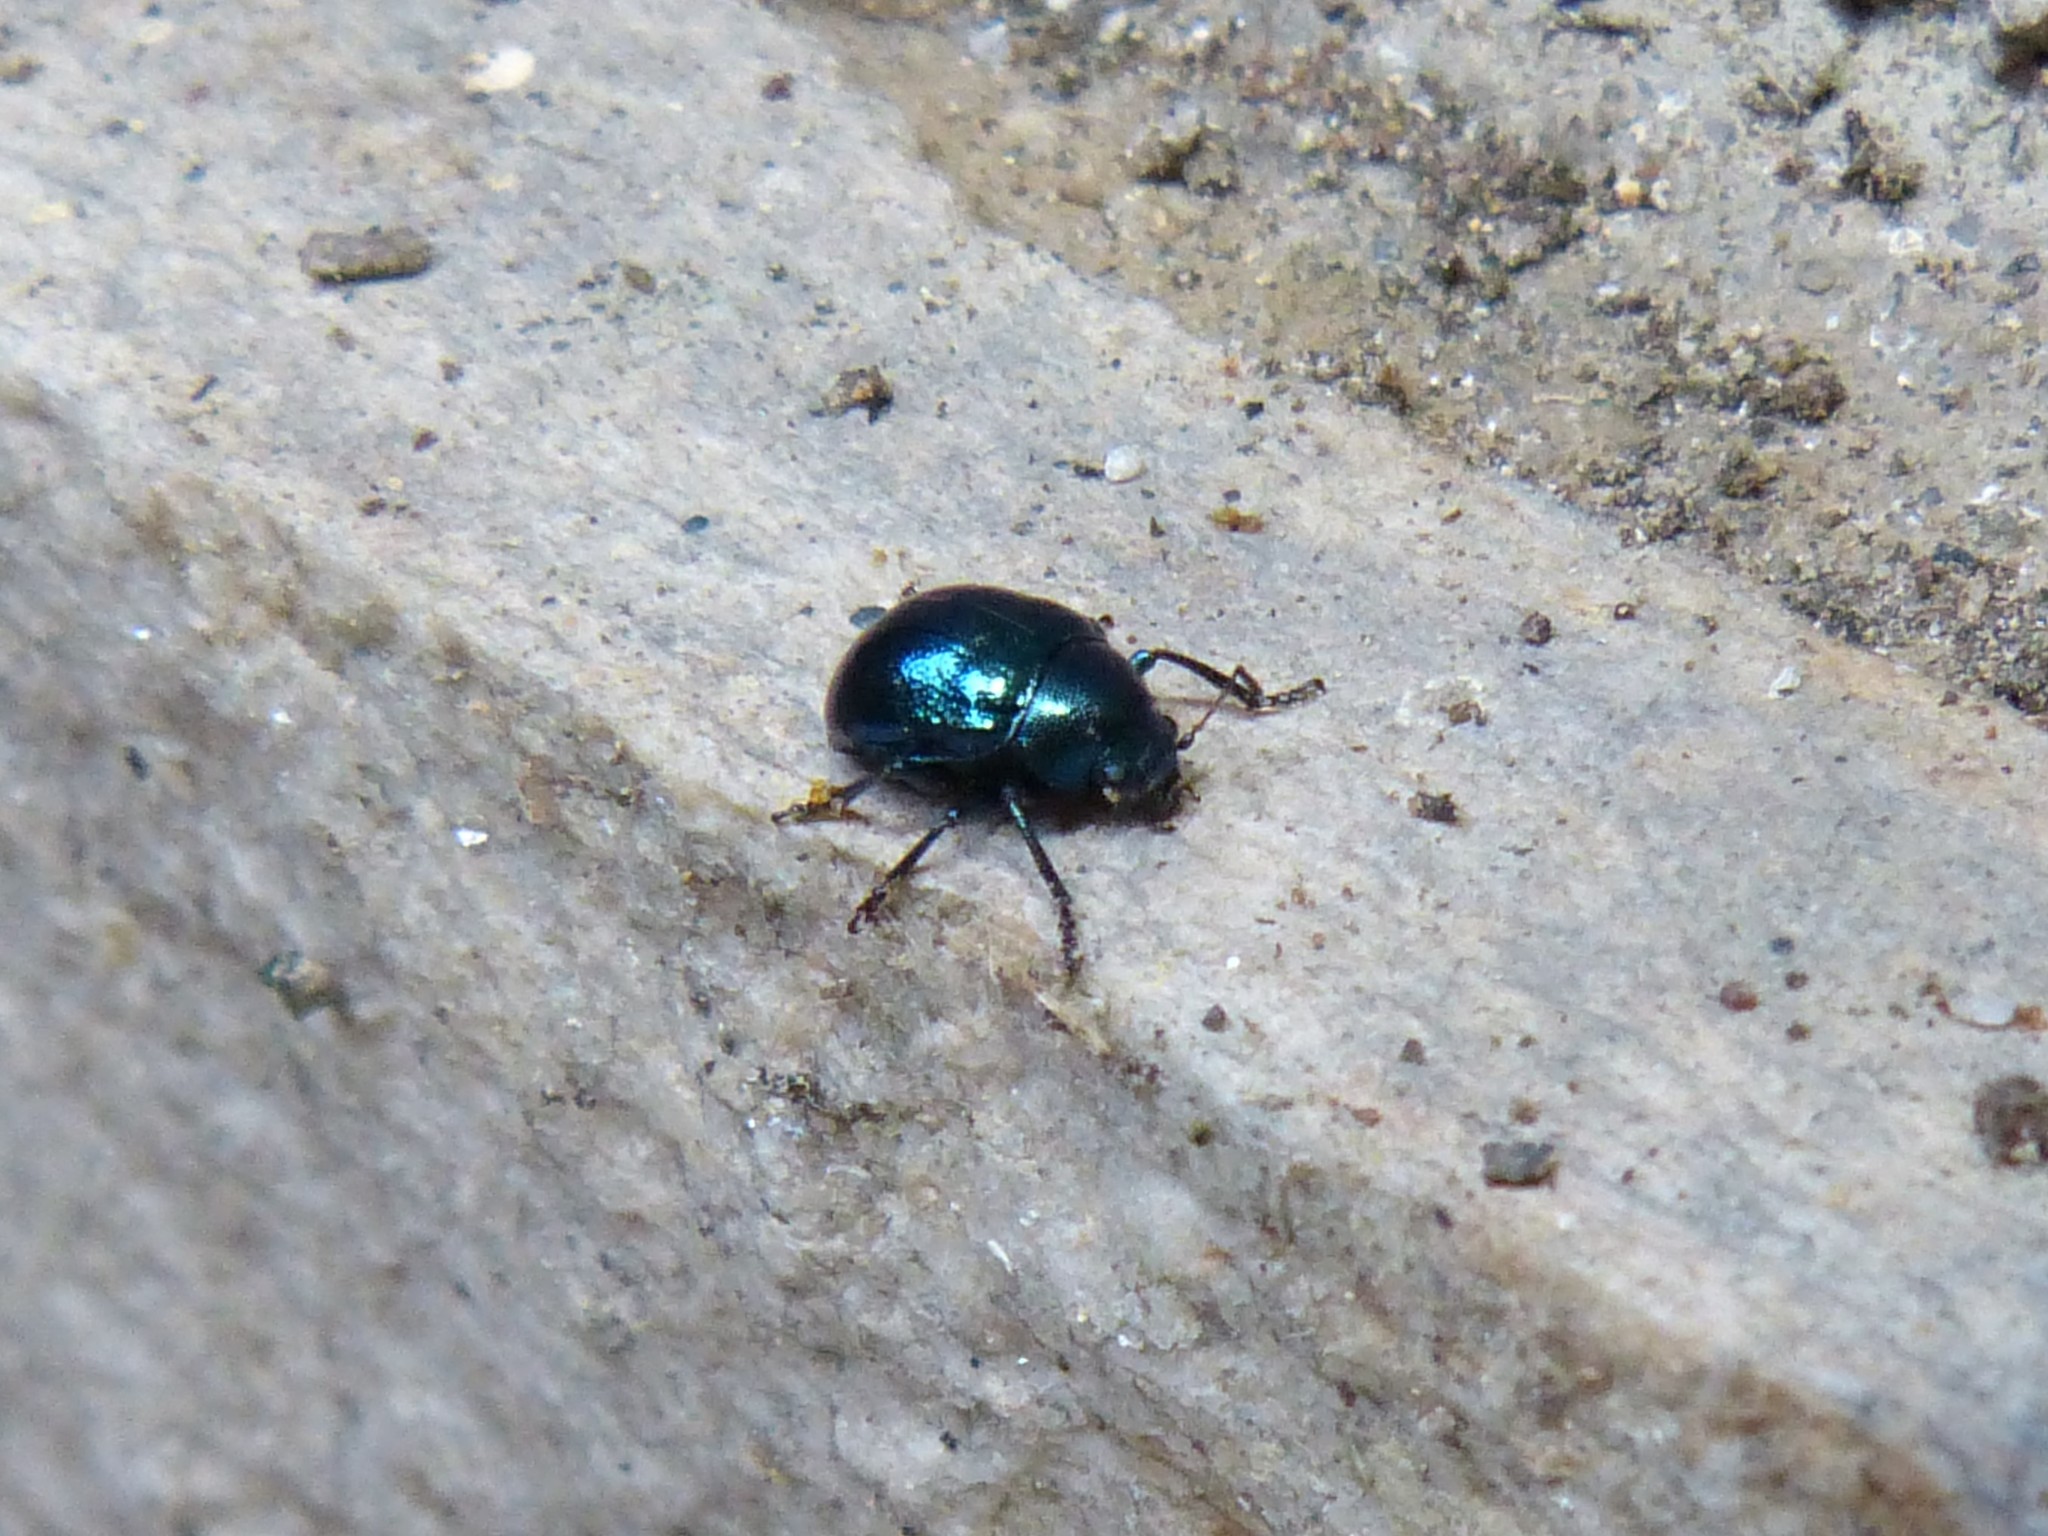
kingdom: Animalia
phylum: Arthropoda
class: Insecta
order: Coleoptera
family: Chrysomelidae
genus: Colasposoma
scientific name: Colasposoma dauricum
